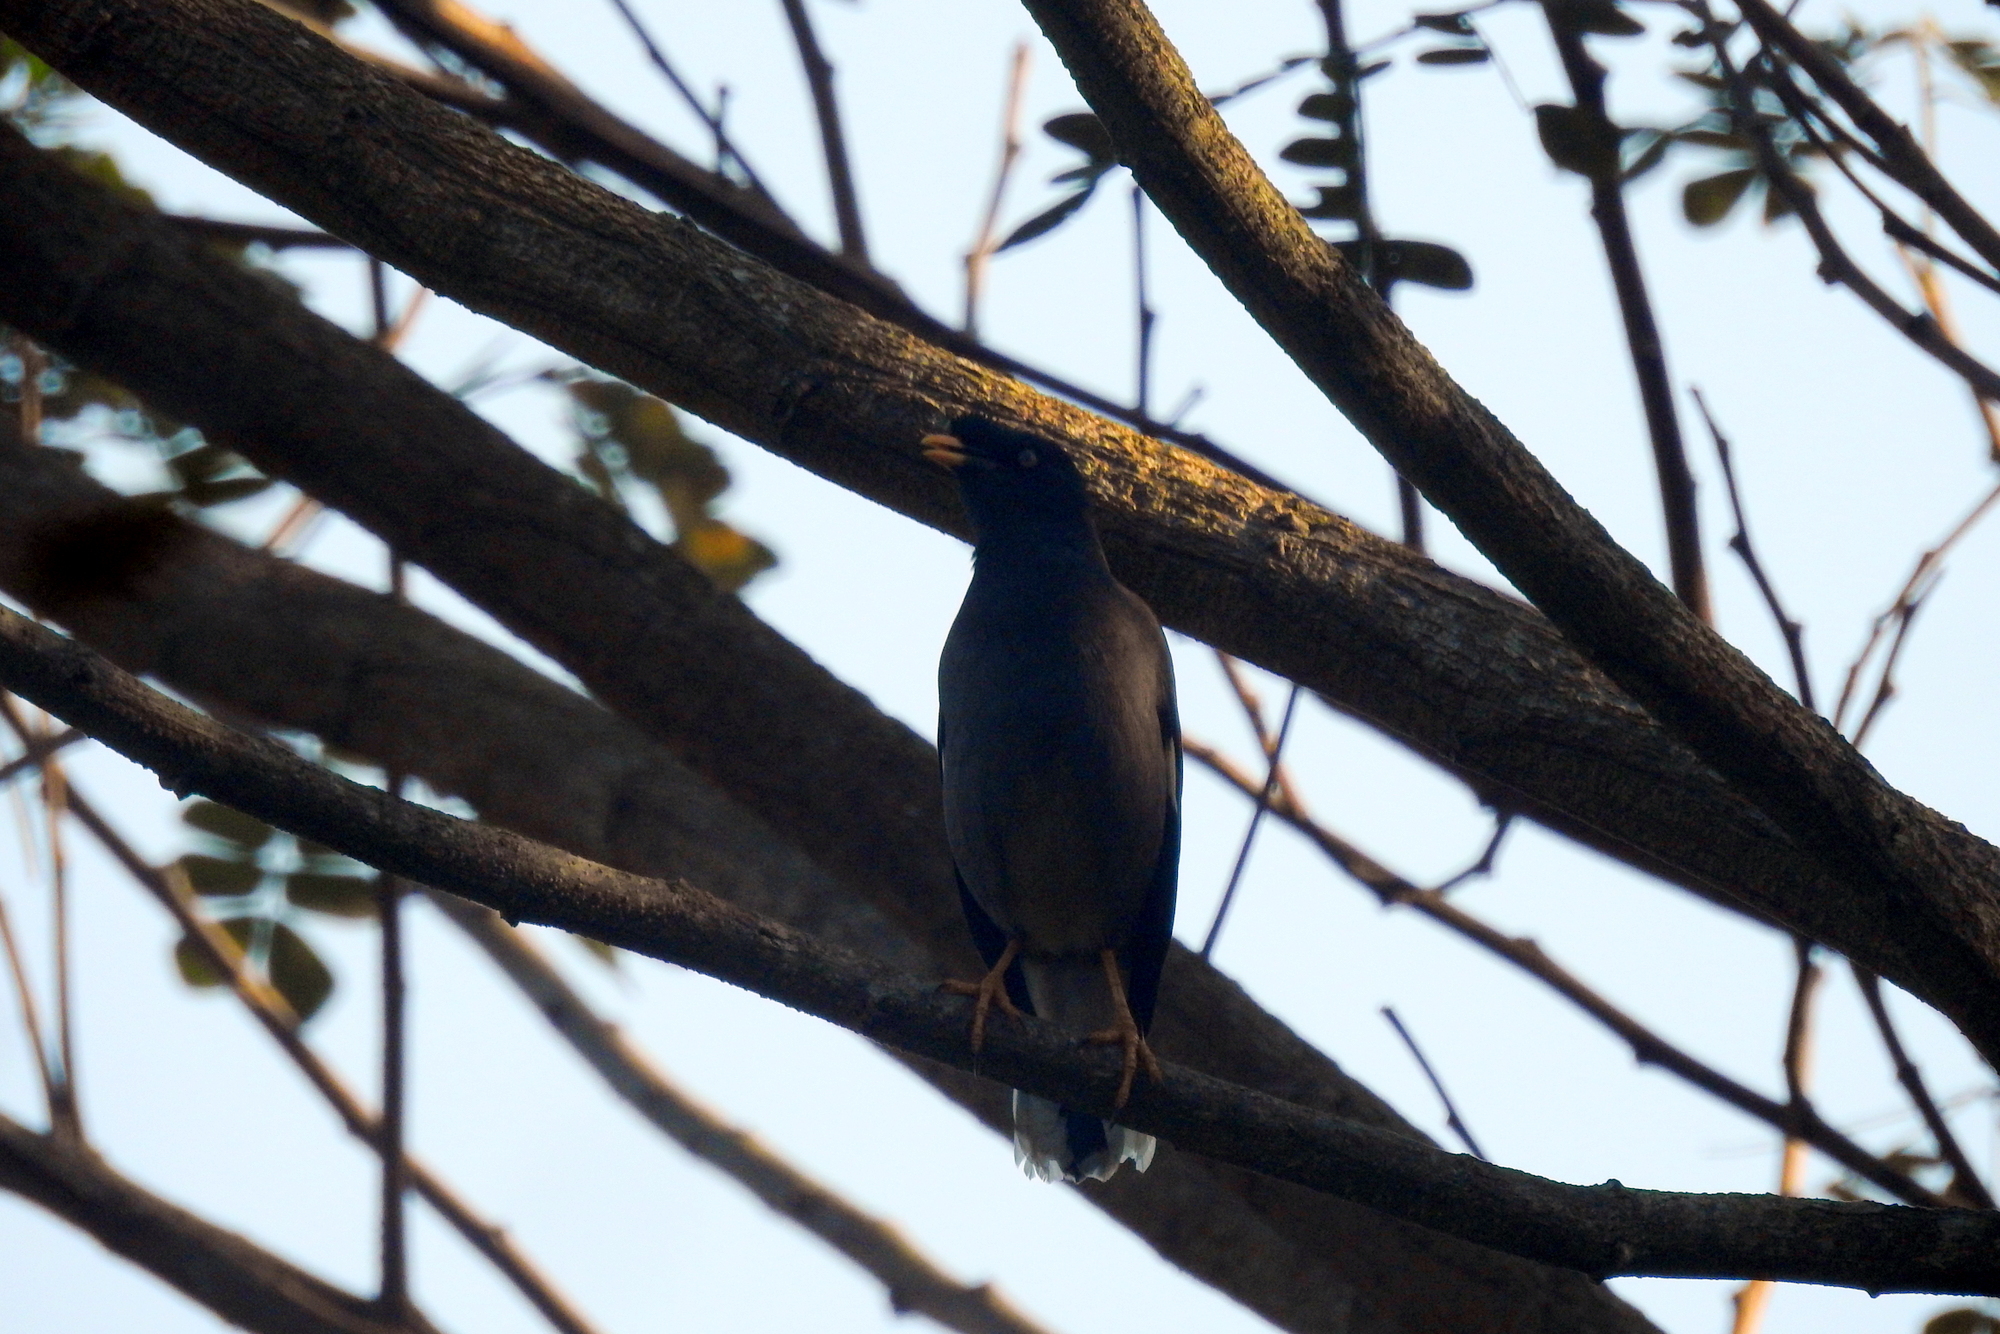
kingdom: Animalia
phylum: Chordata
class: Aves
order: Passeriformes
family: Sturnidae
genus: Acridotheres
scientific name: Acridotheres fuscus
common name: Jungle myna
